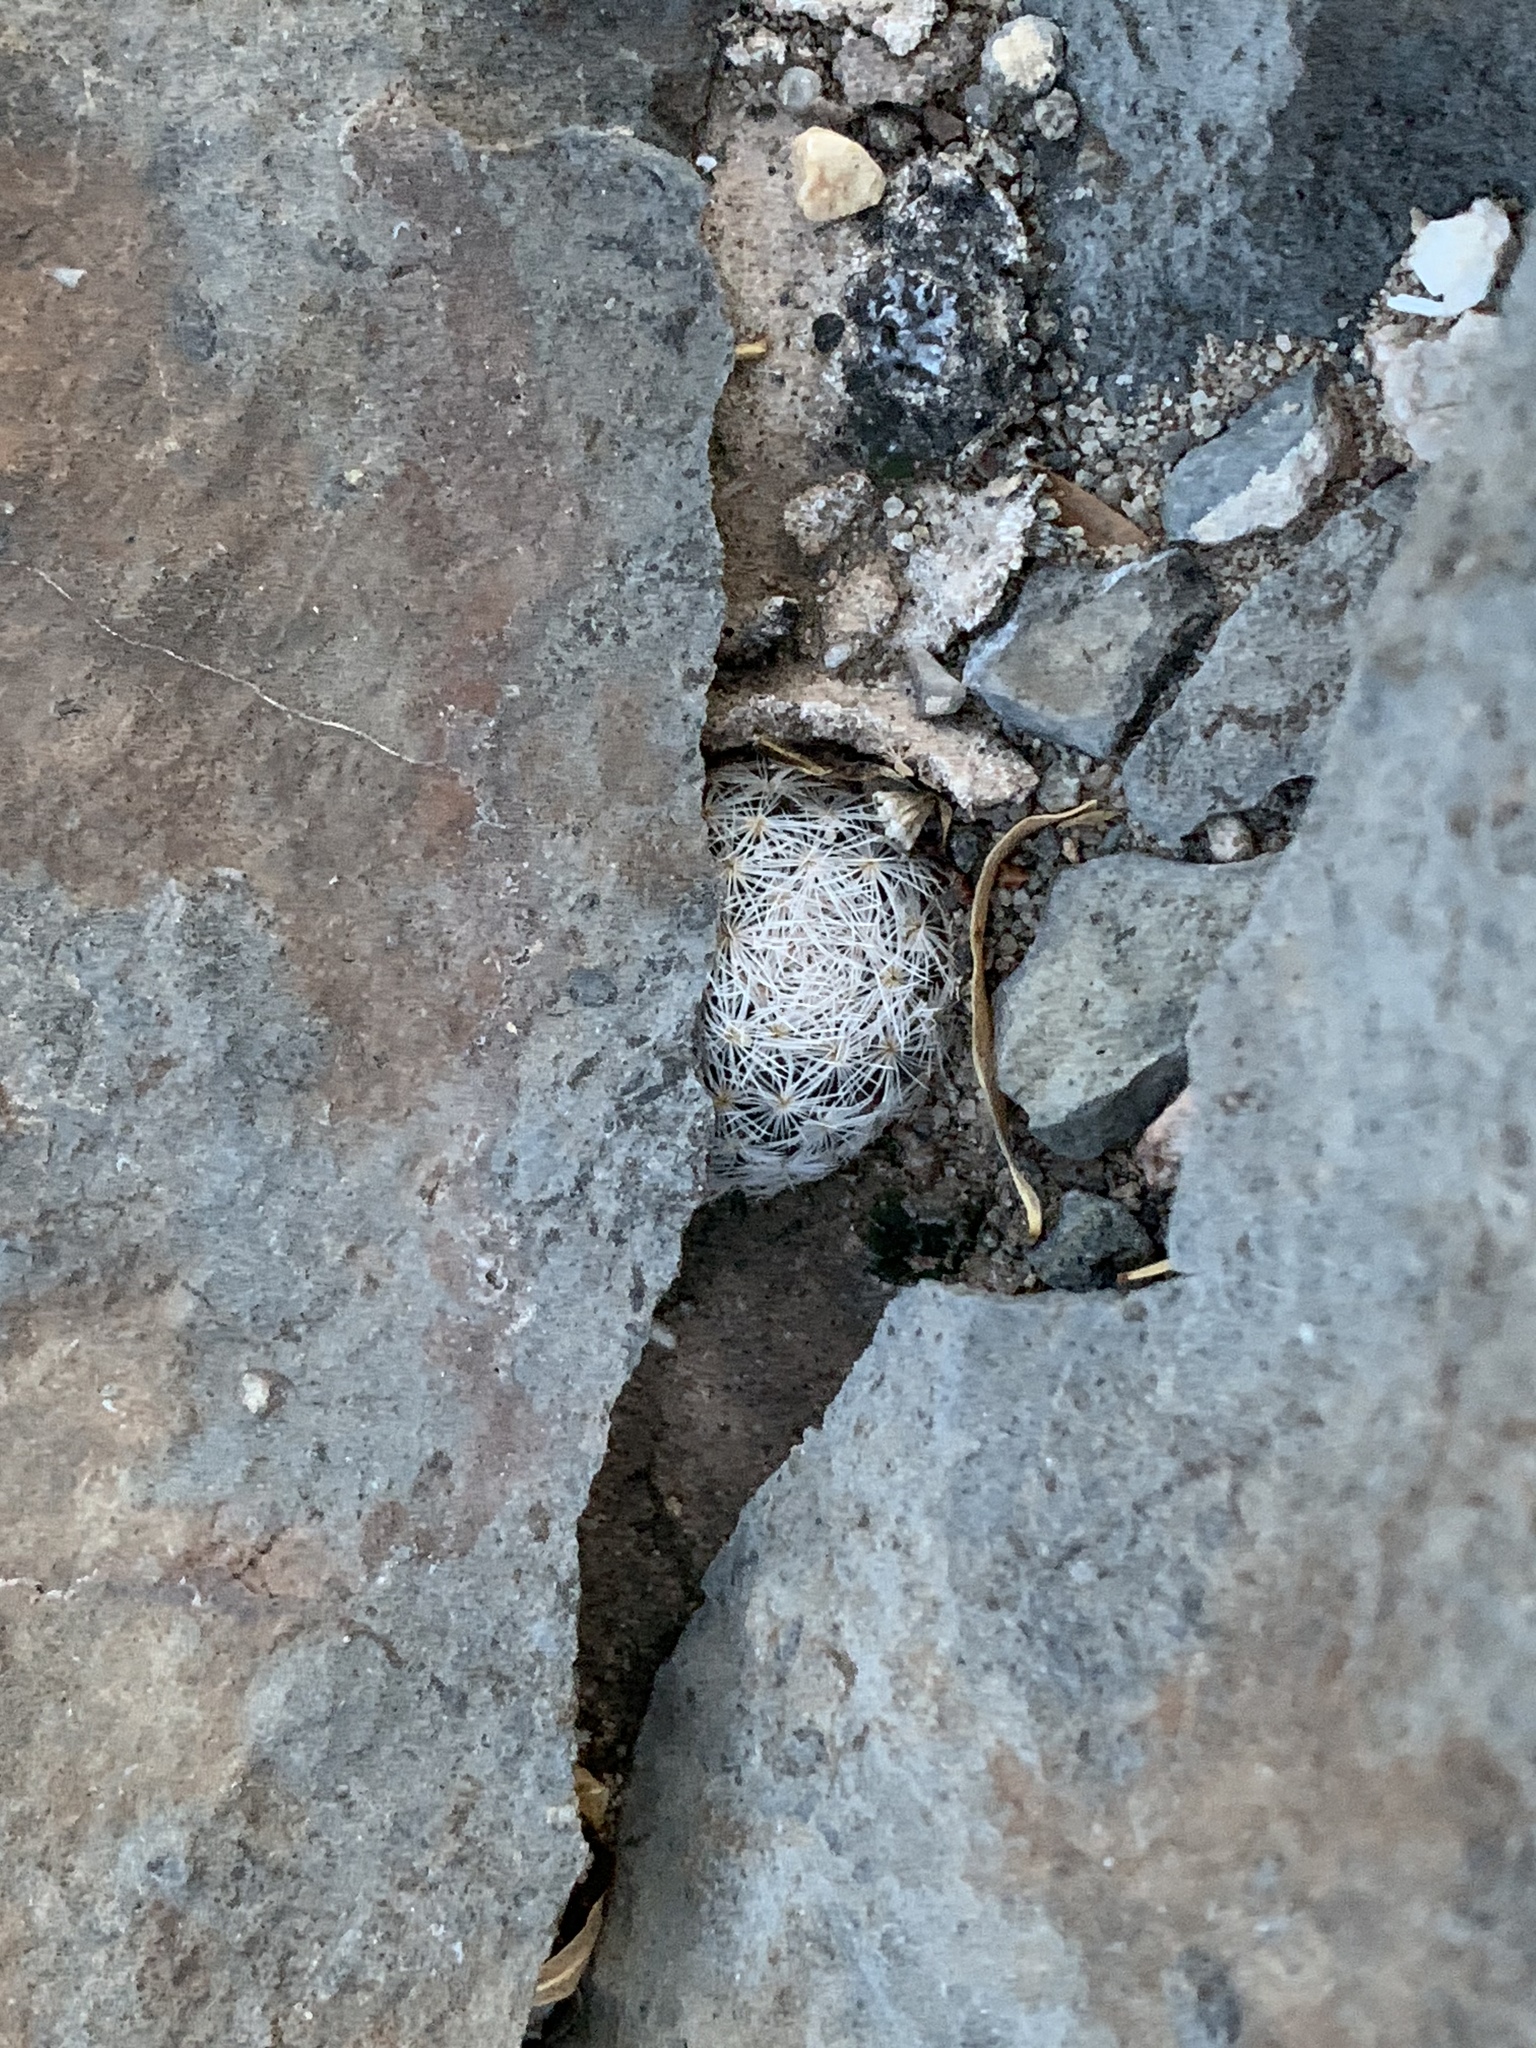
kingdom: Plantae
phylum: Tracheophyta
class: Magnoliopsida
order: Caryophyllales
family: Cactaceae
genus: Mammillaria
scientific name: Mammillaria lasiacantha
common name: Lace-spine nipple cactus
